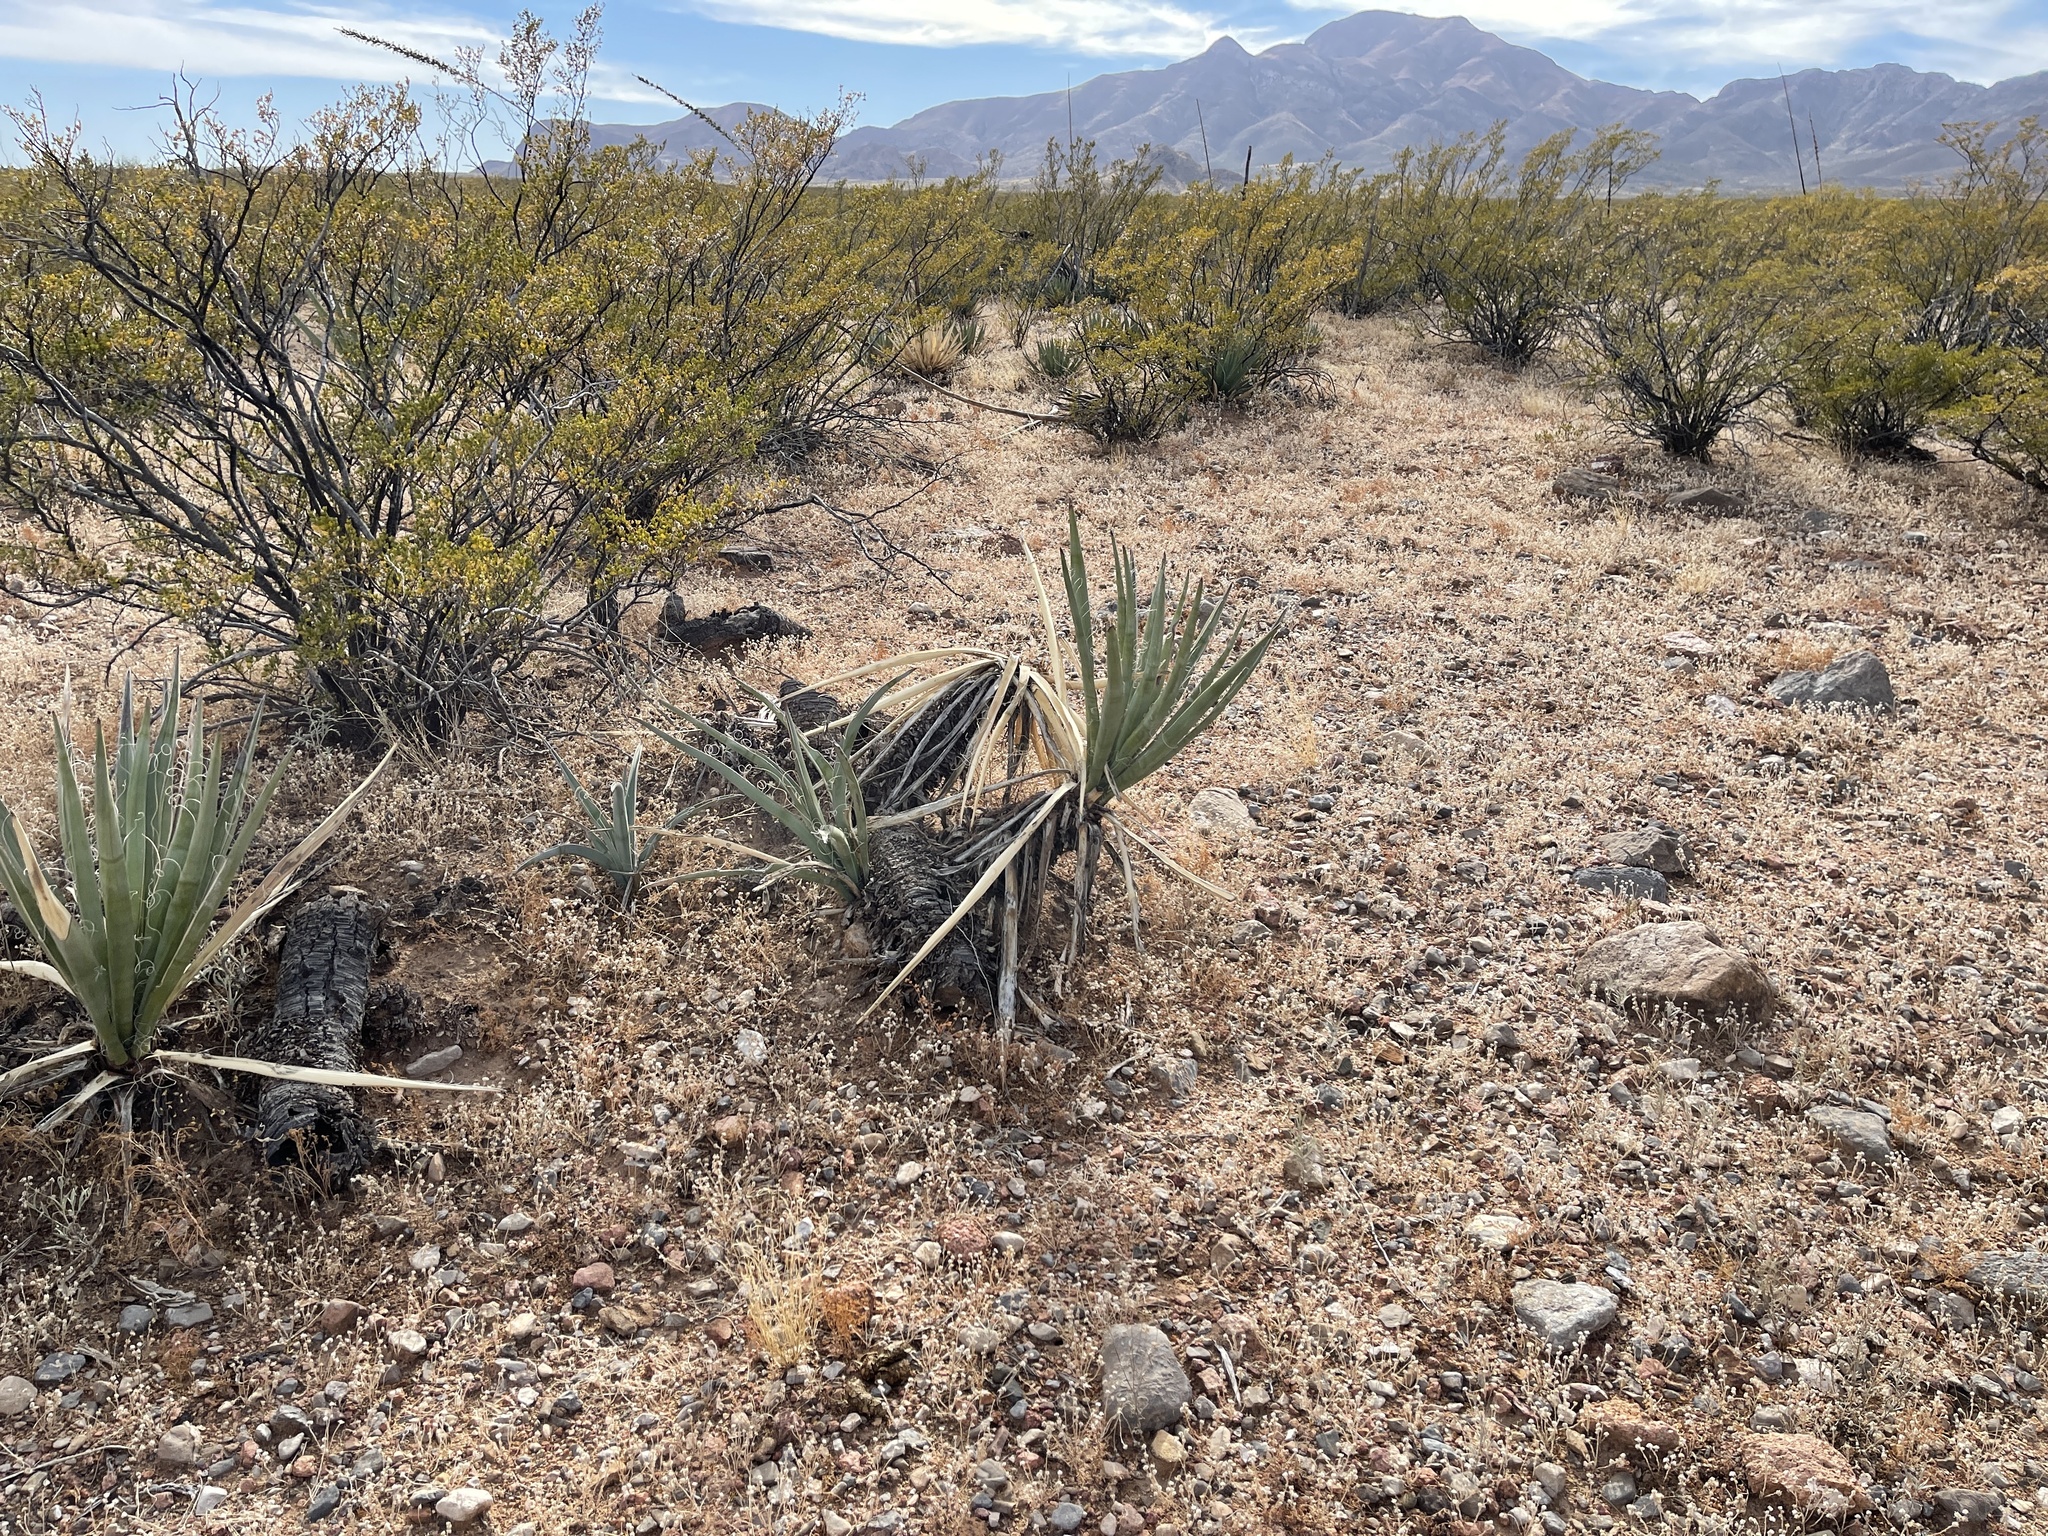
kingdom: Plantae
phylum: Tracheophyta
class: Liliopsida
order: Asparagales
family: Asparagaceae
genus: Yucca
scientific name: Yucca baccata
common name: Banana yucca
